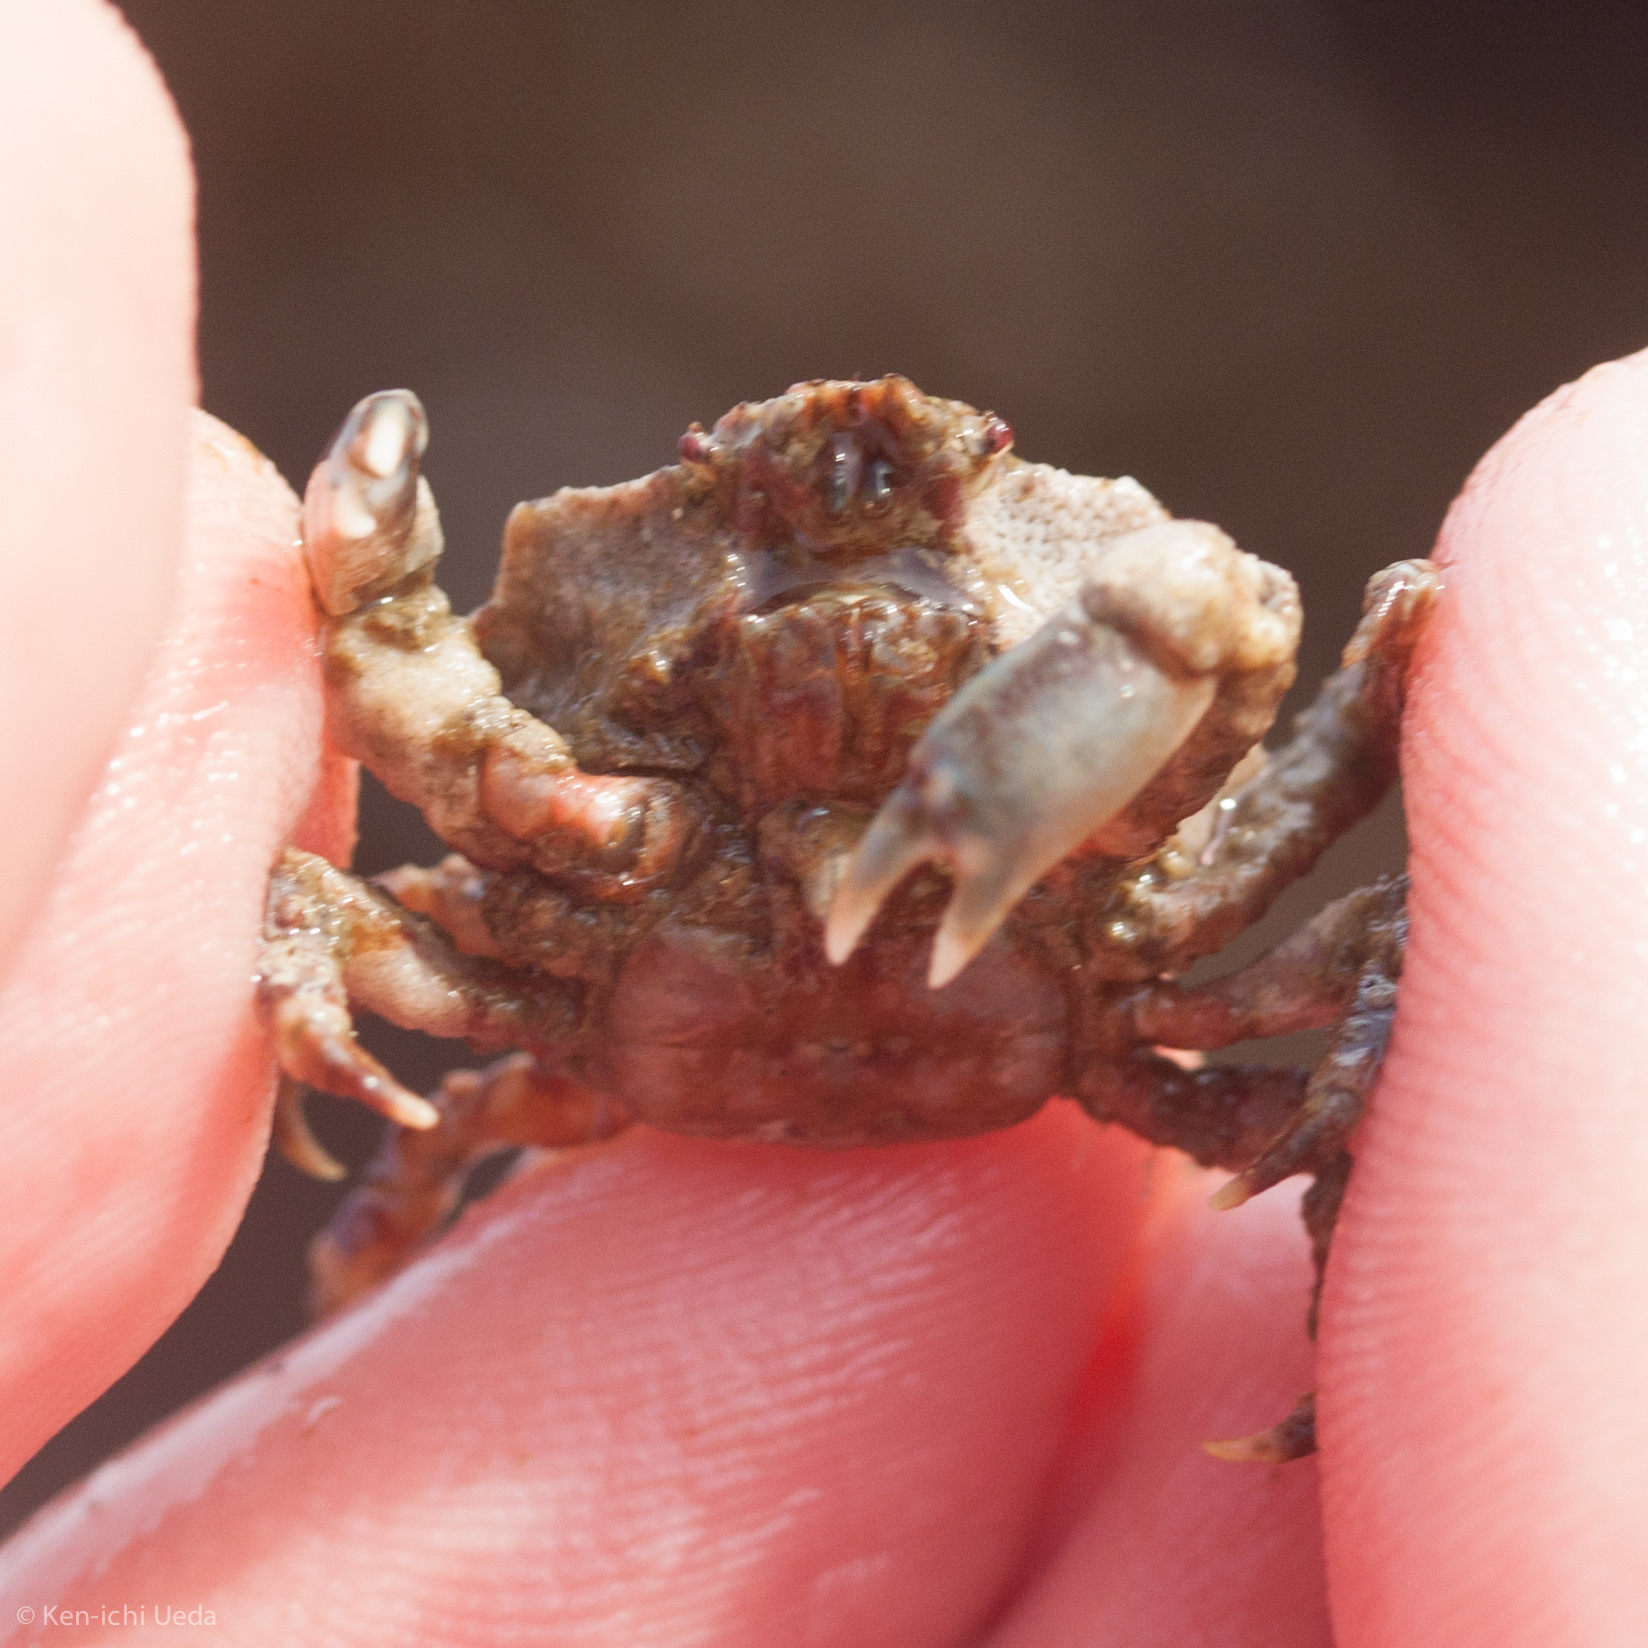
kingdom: Animalia
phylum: Arthropoda
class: Malacostraca
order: Decapoda
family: Epialtidae
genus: Pugettia
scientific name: Pugettia foliata
